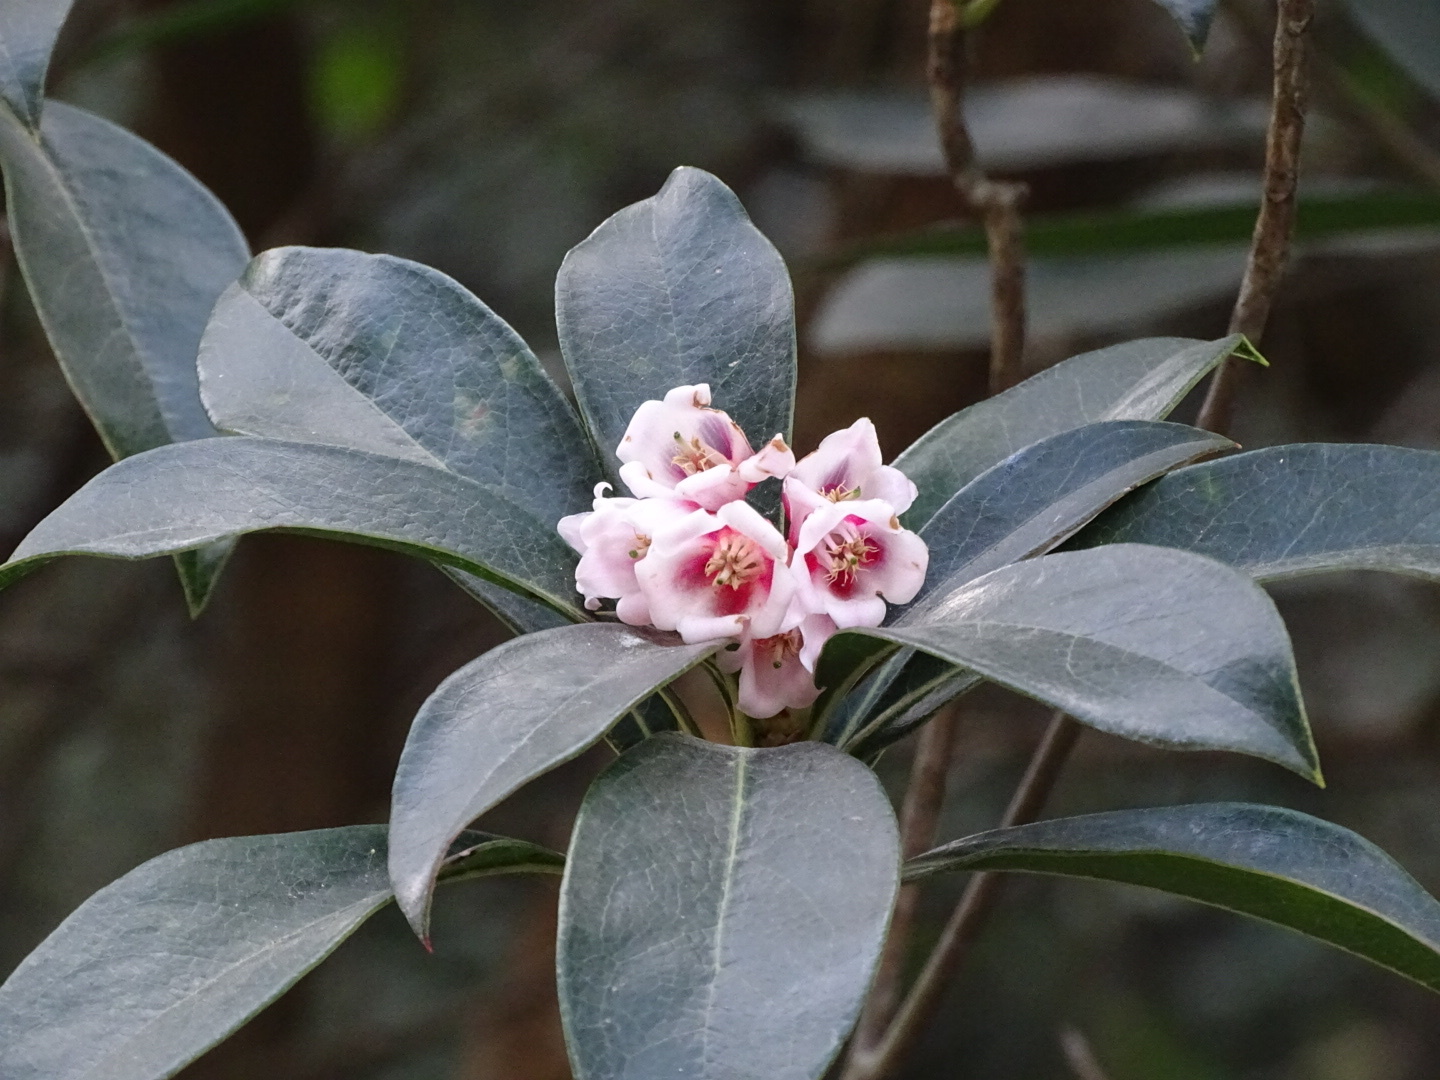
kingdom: Plantae
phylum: Tracheophyta
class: Magnoliopsida
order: Ericales
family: Ericaceae
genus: Enkianthus
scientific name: Enkianthus quinqueflorus
